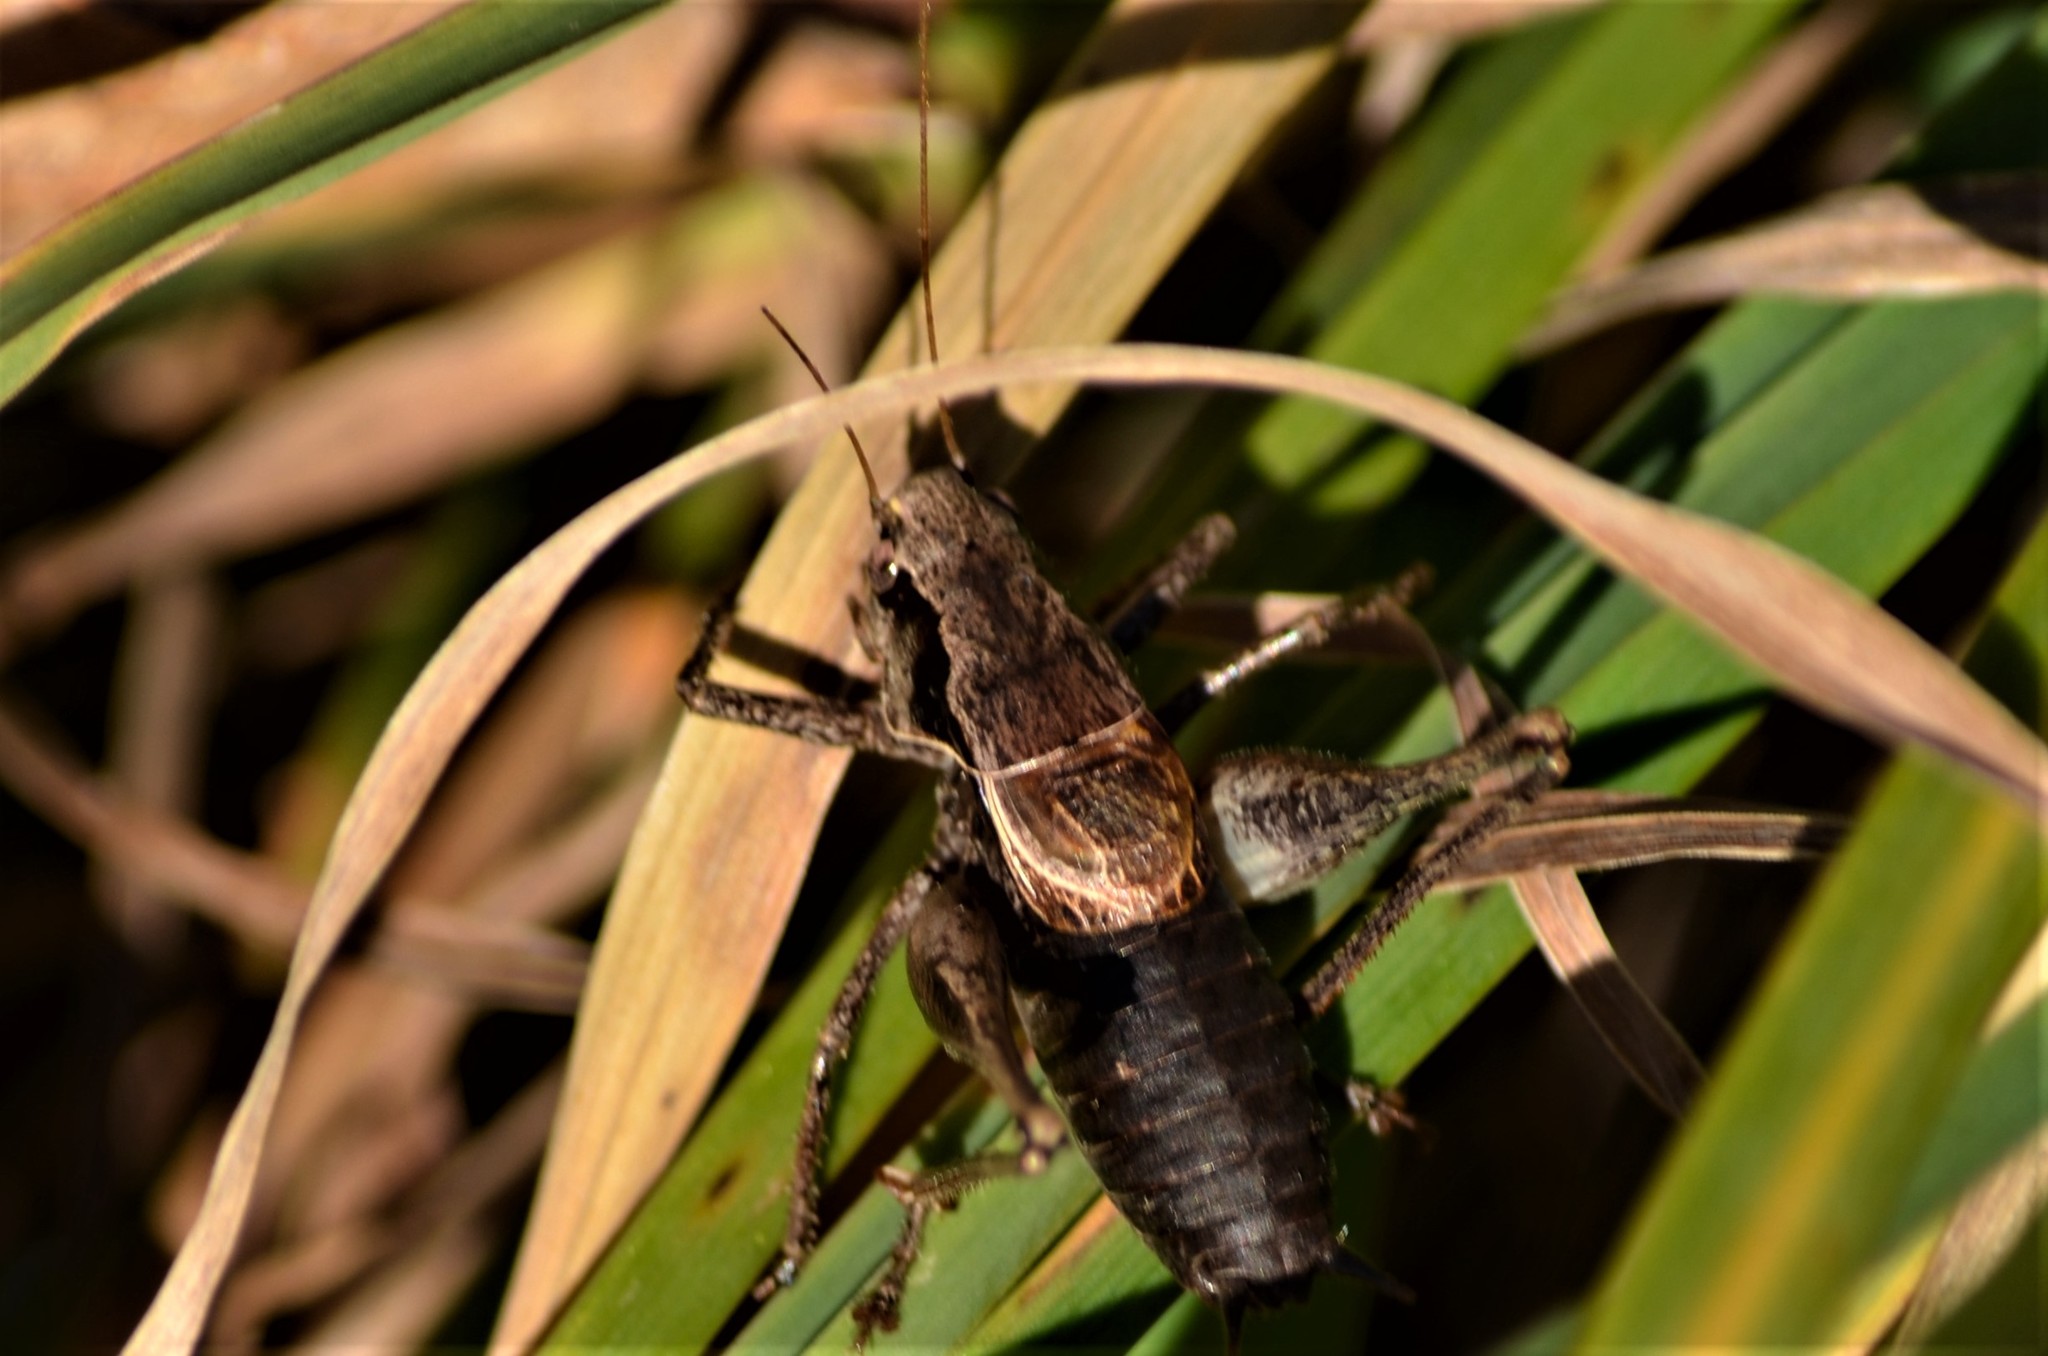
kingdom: Animalia
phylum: Arthropoda
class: Insecta
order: Orthoptera
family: Tettigoniidae
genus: Pholidoptera
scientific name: Pholidoptera griseoaptera
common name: Dark bush-cricket
